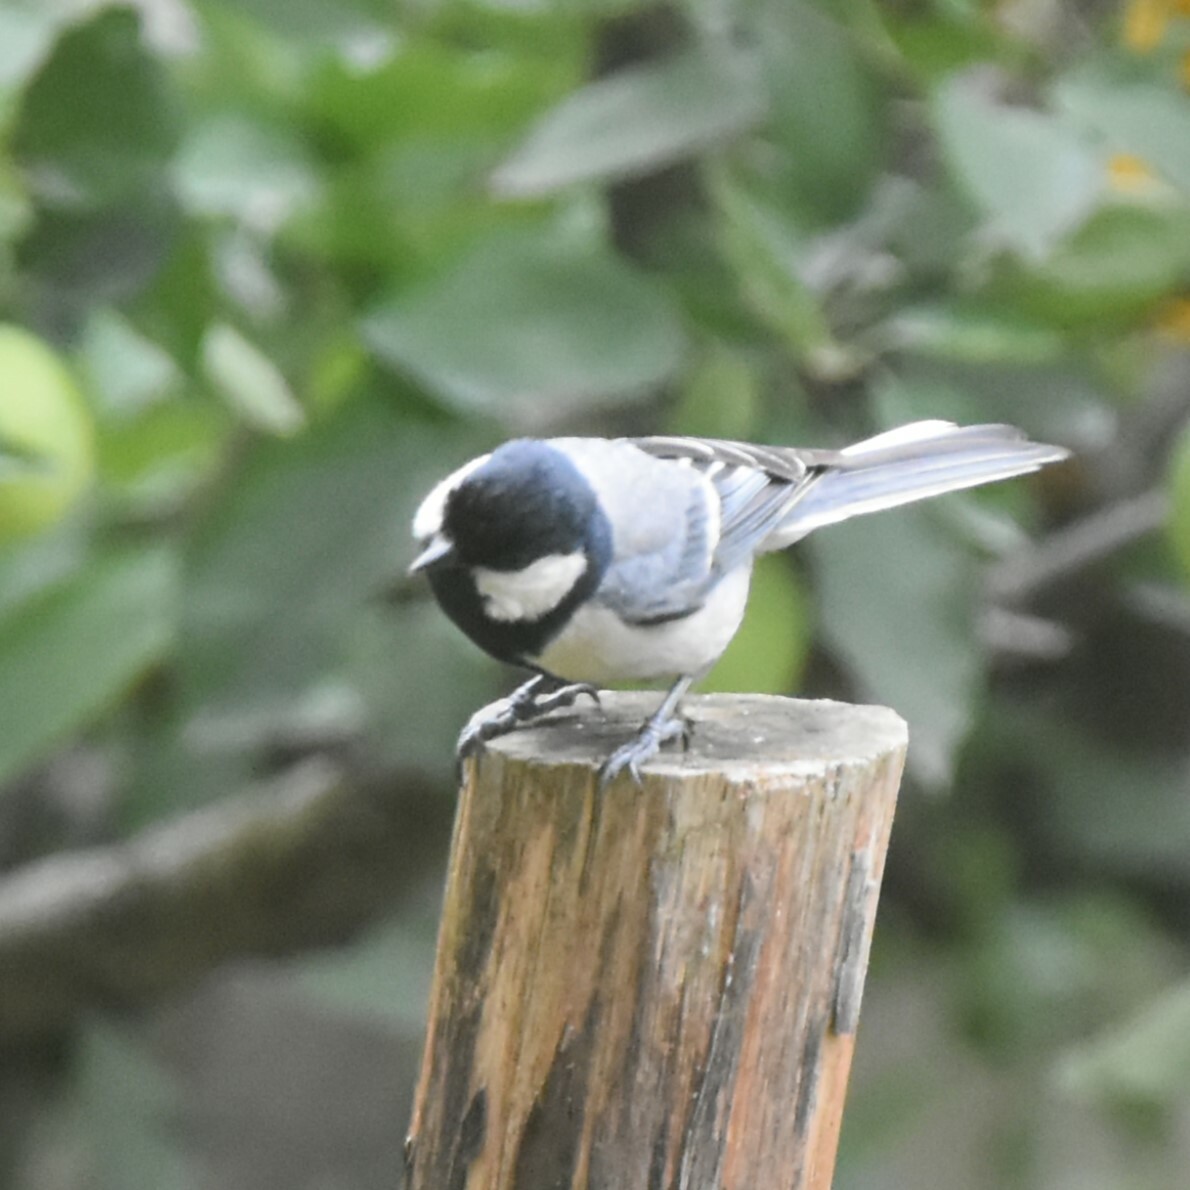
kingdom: Animalia
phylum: Chordata
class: Aves
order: Passeriformes
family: Paridae
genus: Parus
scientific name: Parus cinereus
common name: Cinereous tit
